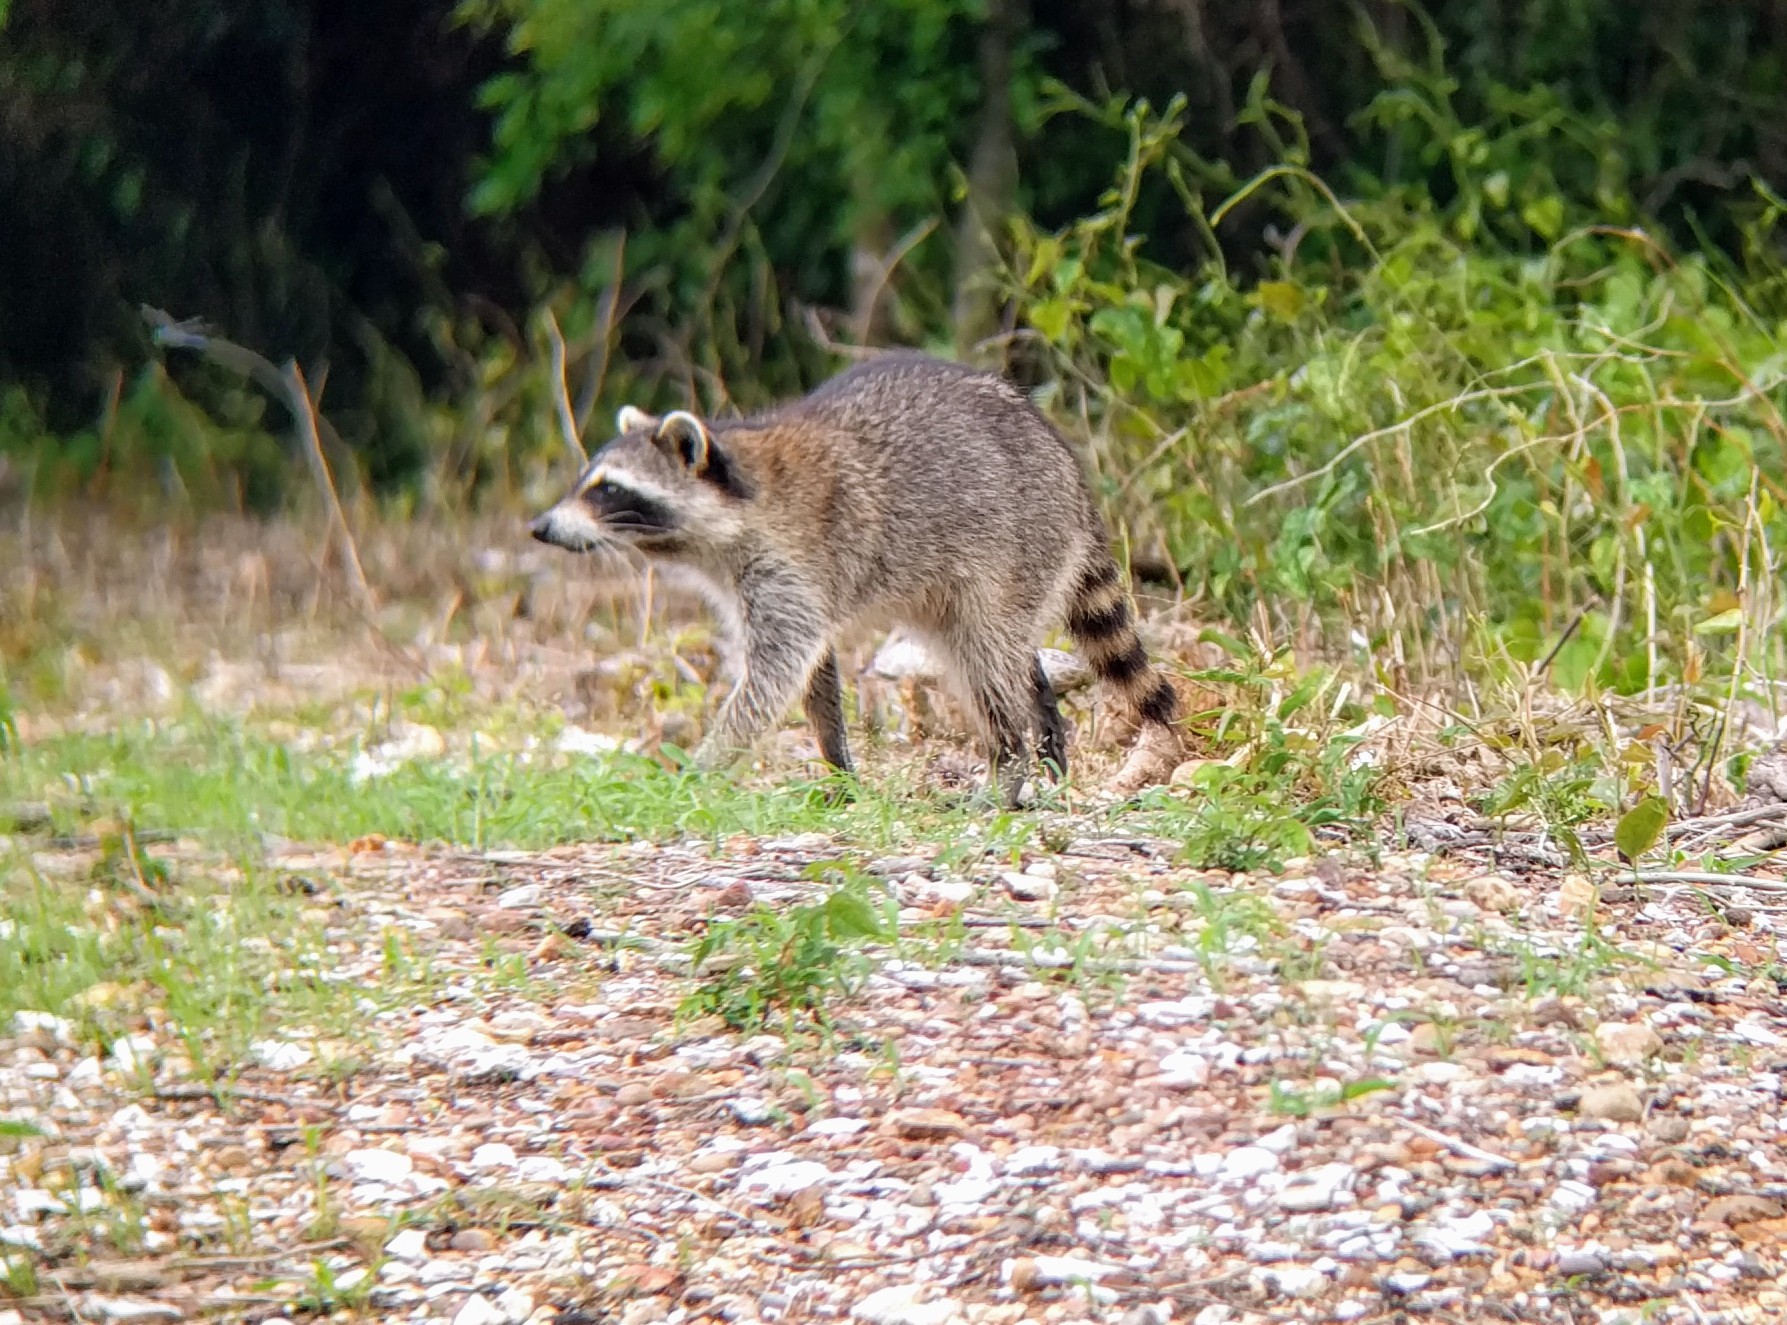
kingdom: Animalia
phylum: Chordata
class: Mammalia
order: Carnivora
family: Procyonidae
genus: Procyon
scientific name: Procyon lotor
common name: Raccoon
